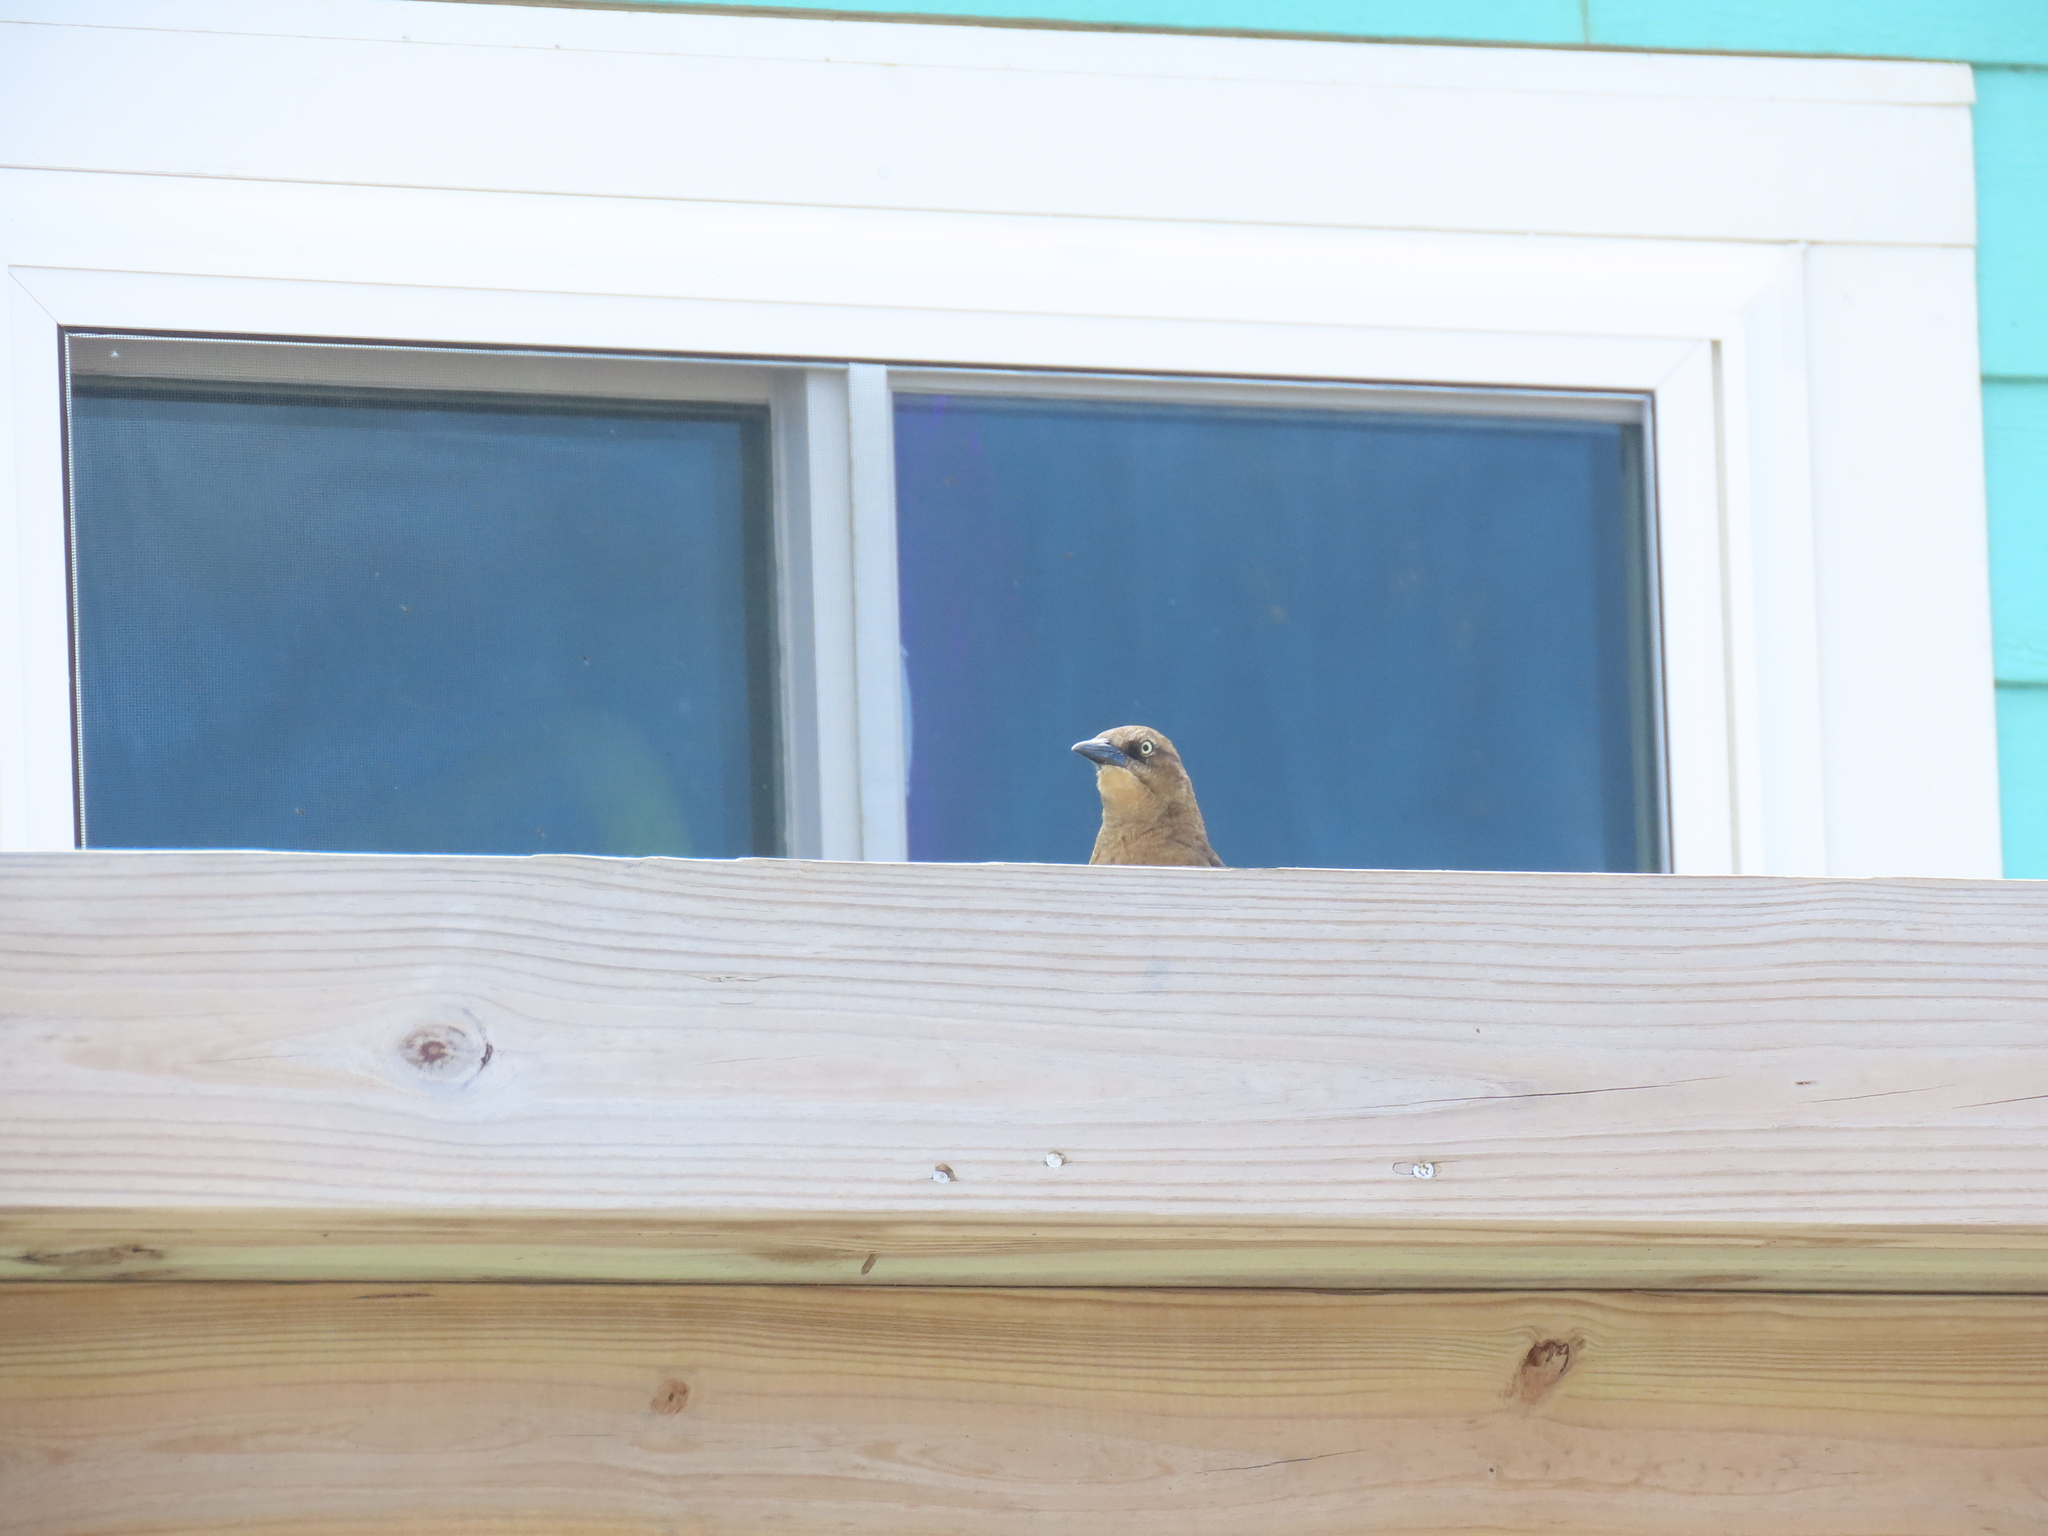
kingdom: Animalia
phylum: Chordata
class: Aves
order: Passeriformes
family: Icteridae
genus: Quiscalus
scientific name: Quiscalus major
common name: Boat-tailed grackle
